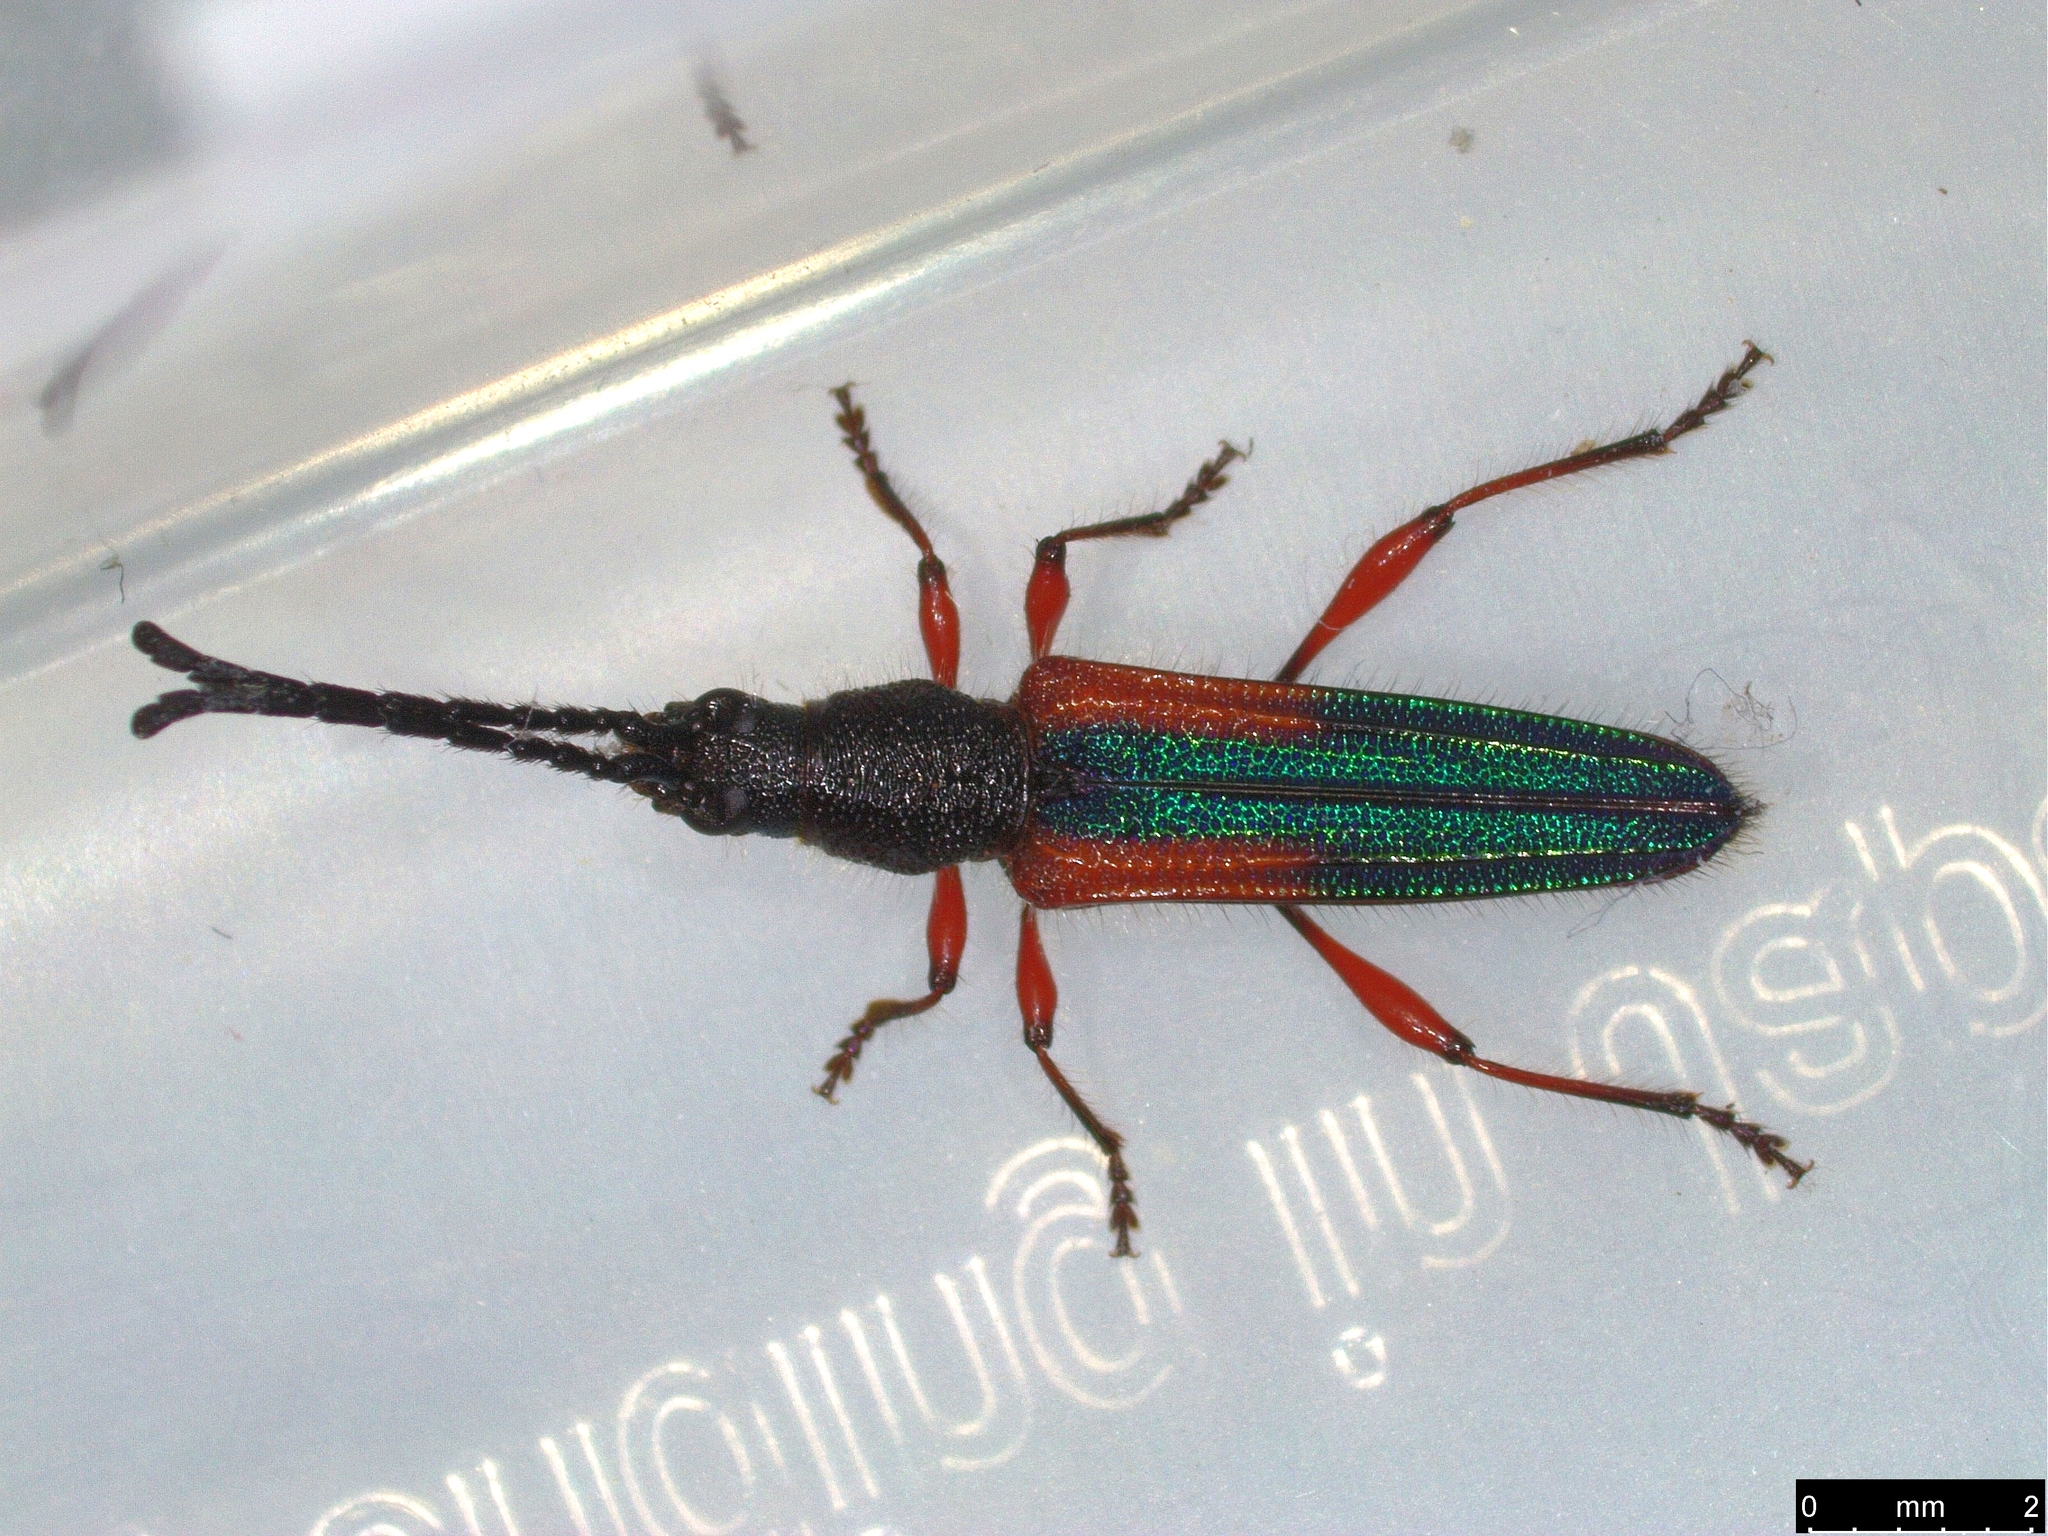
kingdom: Animalia
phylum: Arthropoda
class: Insecta
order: Coleoptera
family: Cerambycidae
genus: Brachytria
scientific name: Brachytria
